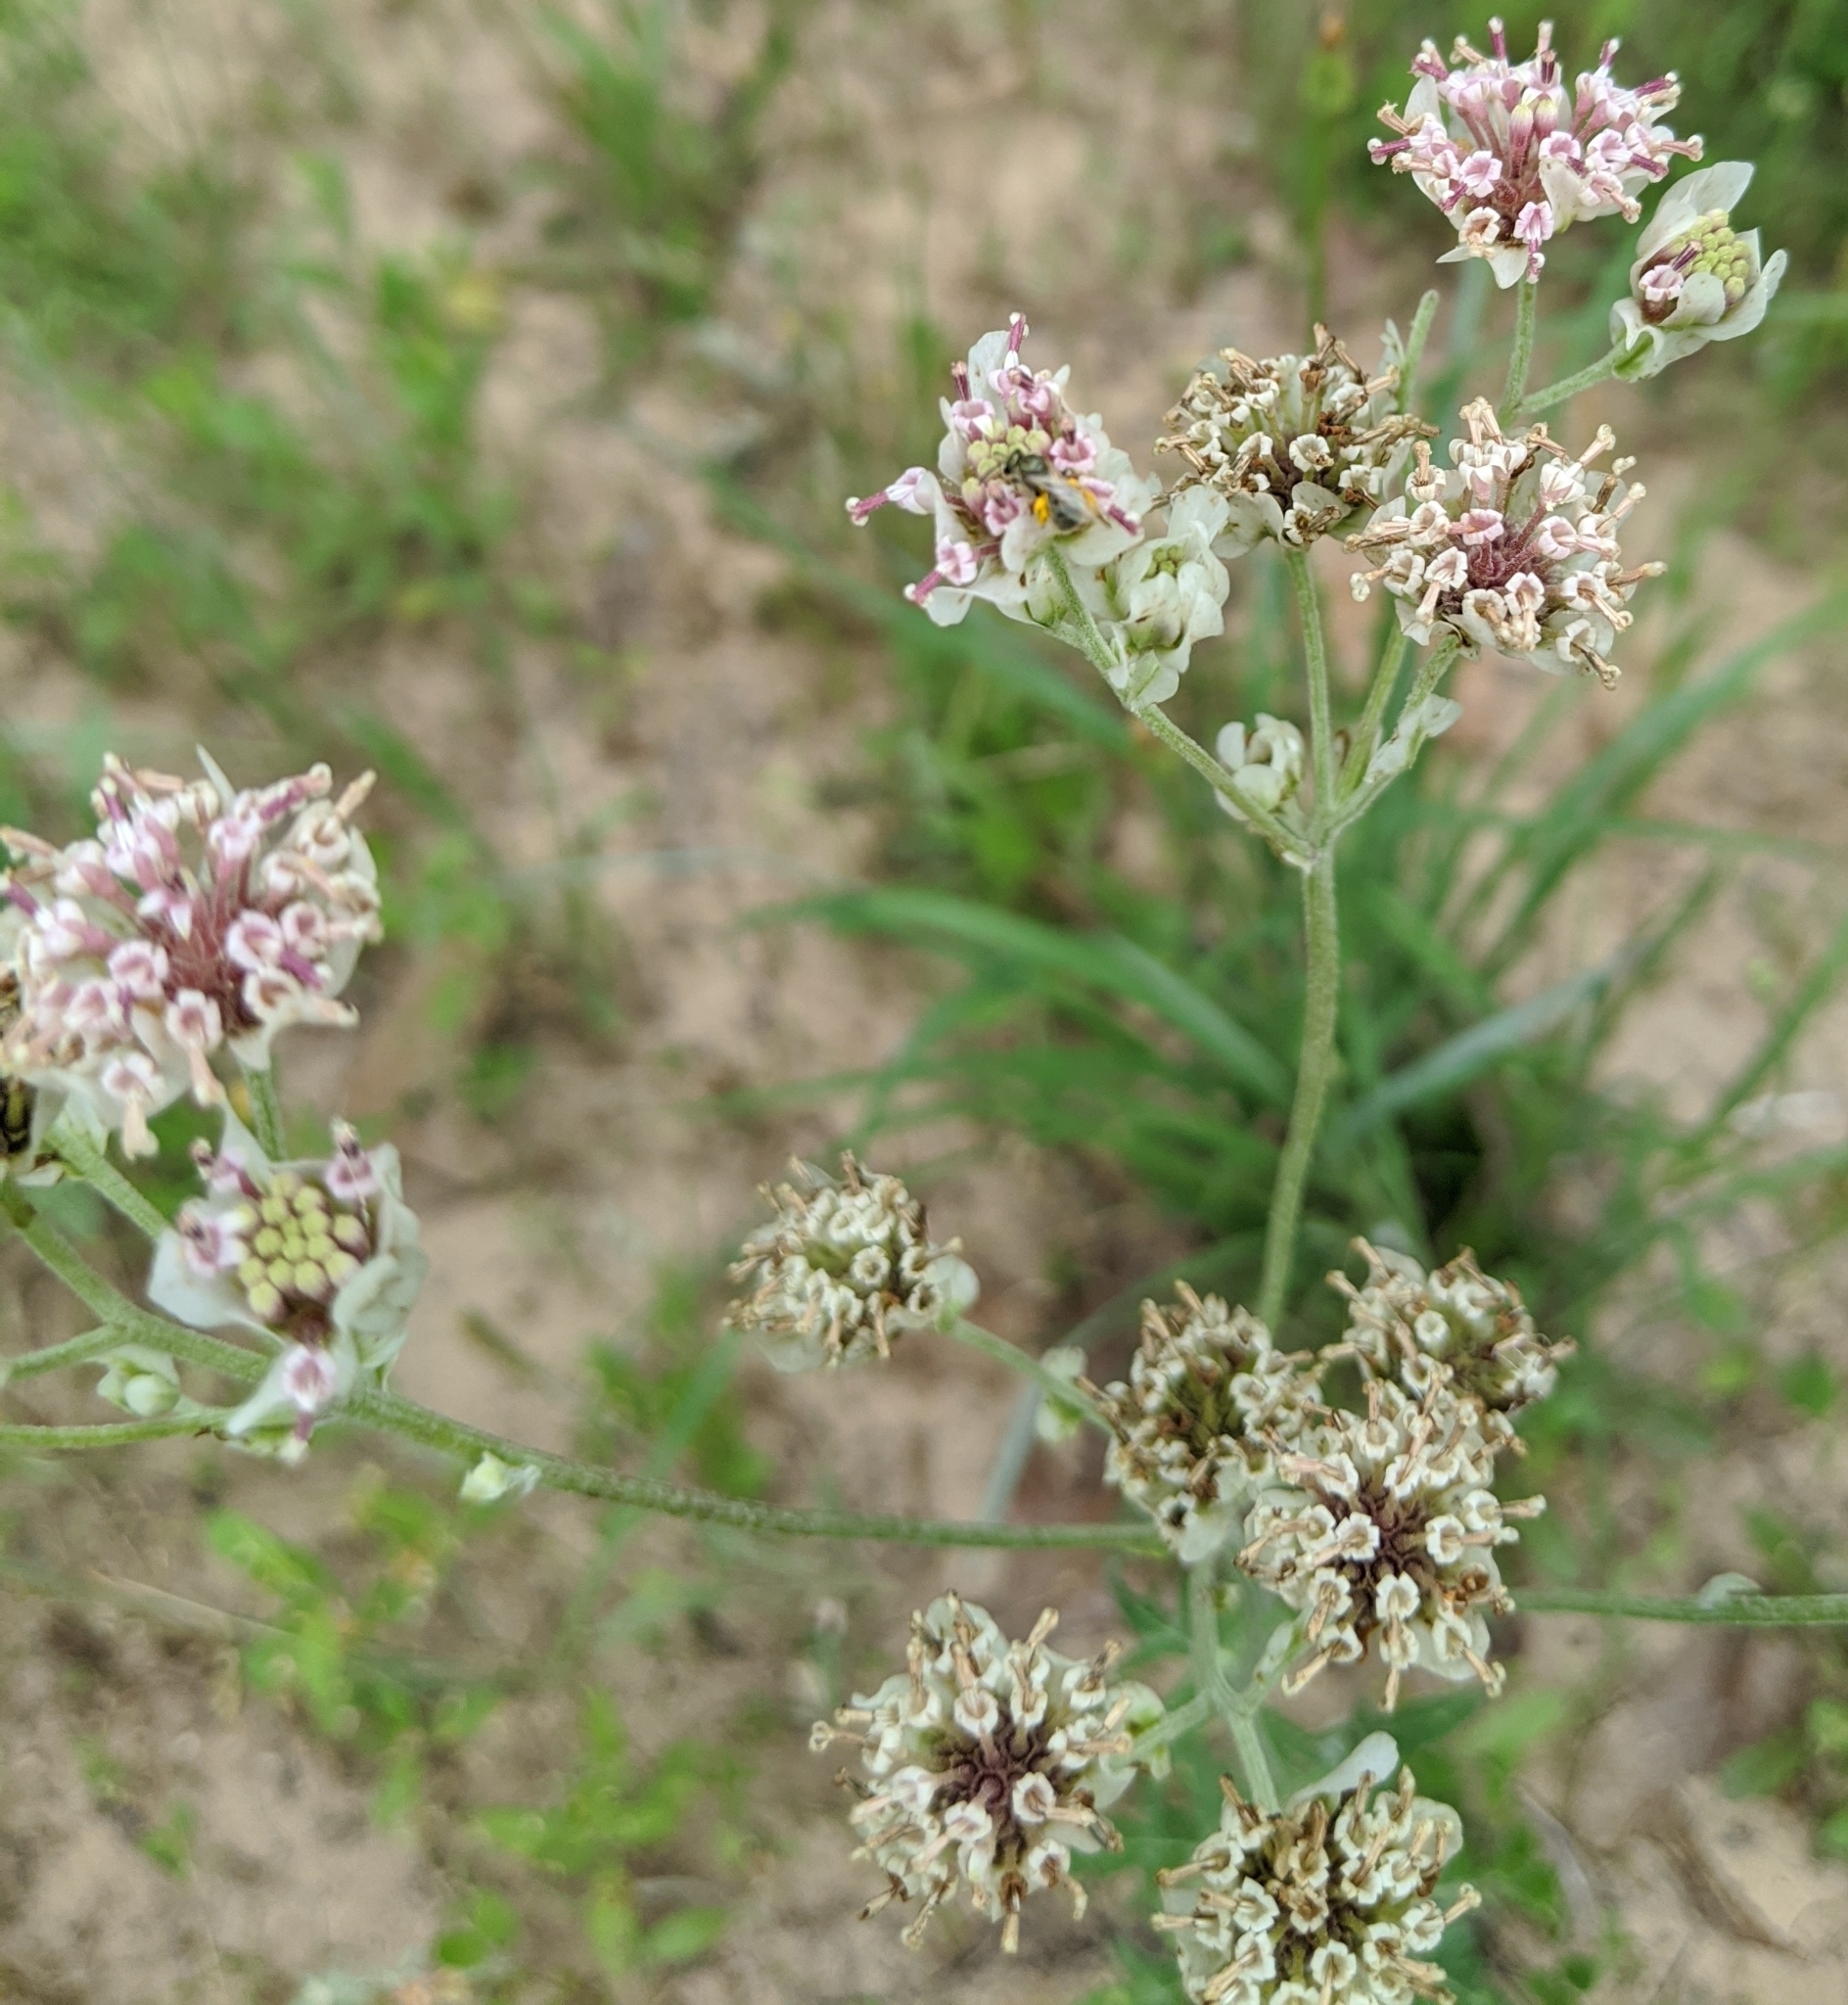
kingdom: Plantae
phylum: Tracheophyta
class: Magnoliopsida
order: Asterales
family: Asteraceae
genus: Hymenopappus
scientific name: Hymenopappus artemisiifolius
